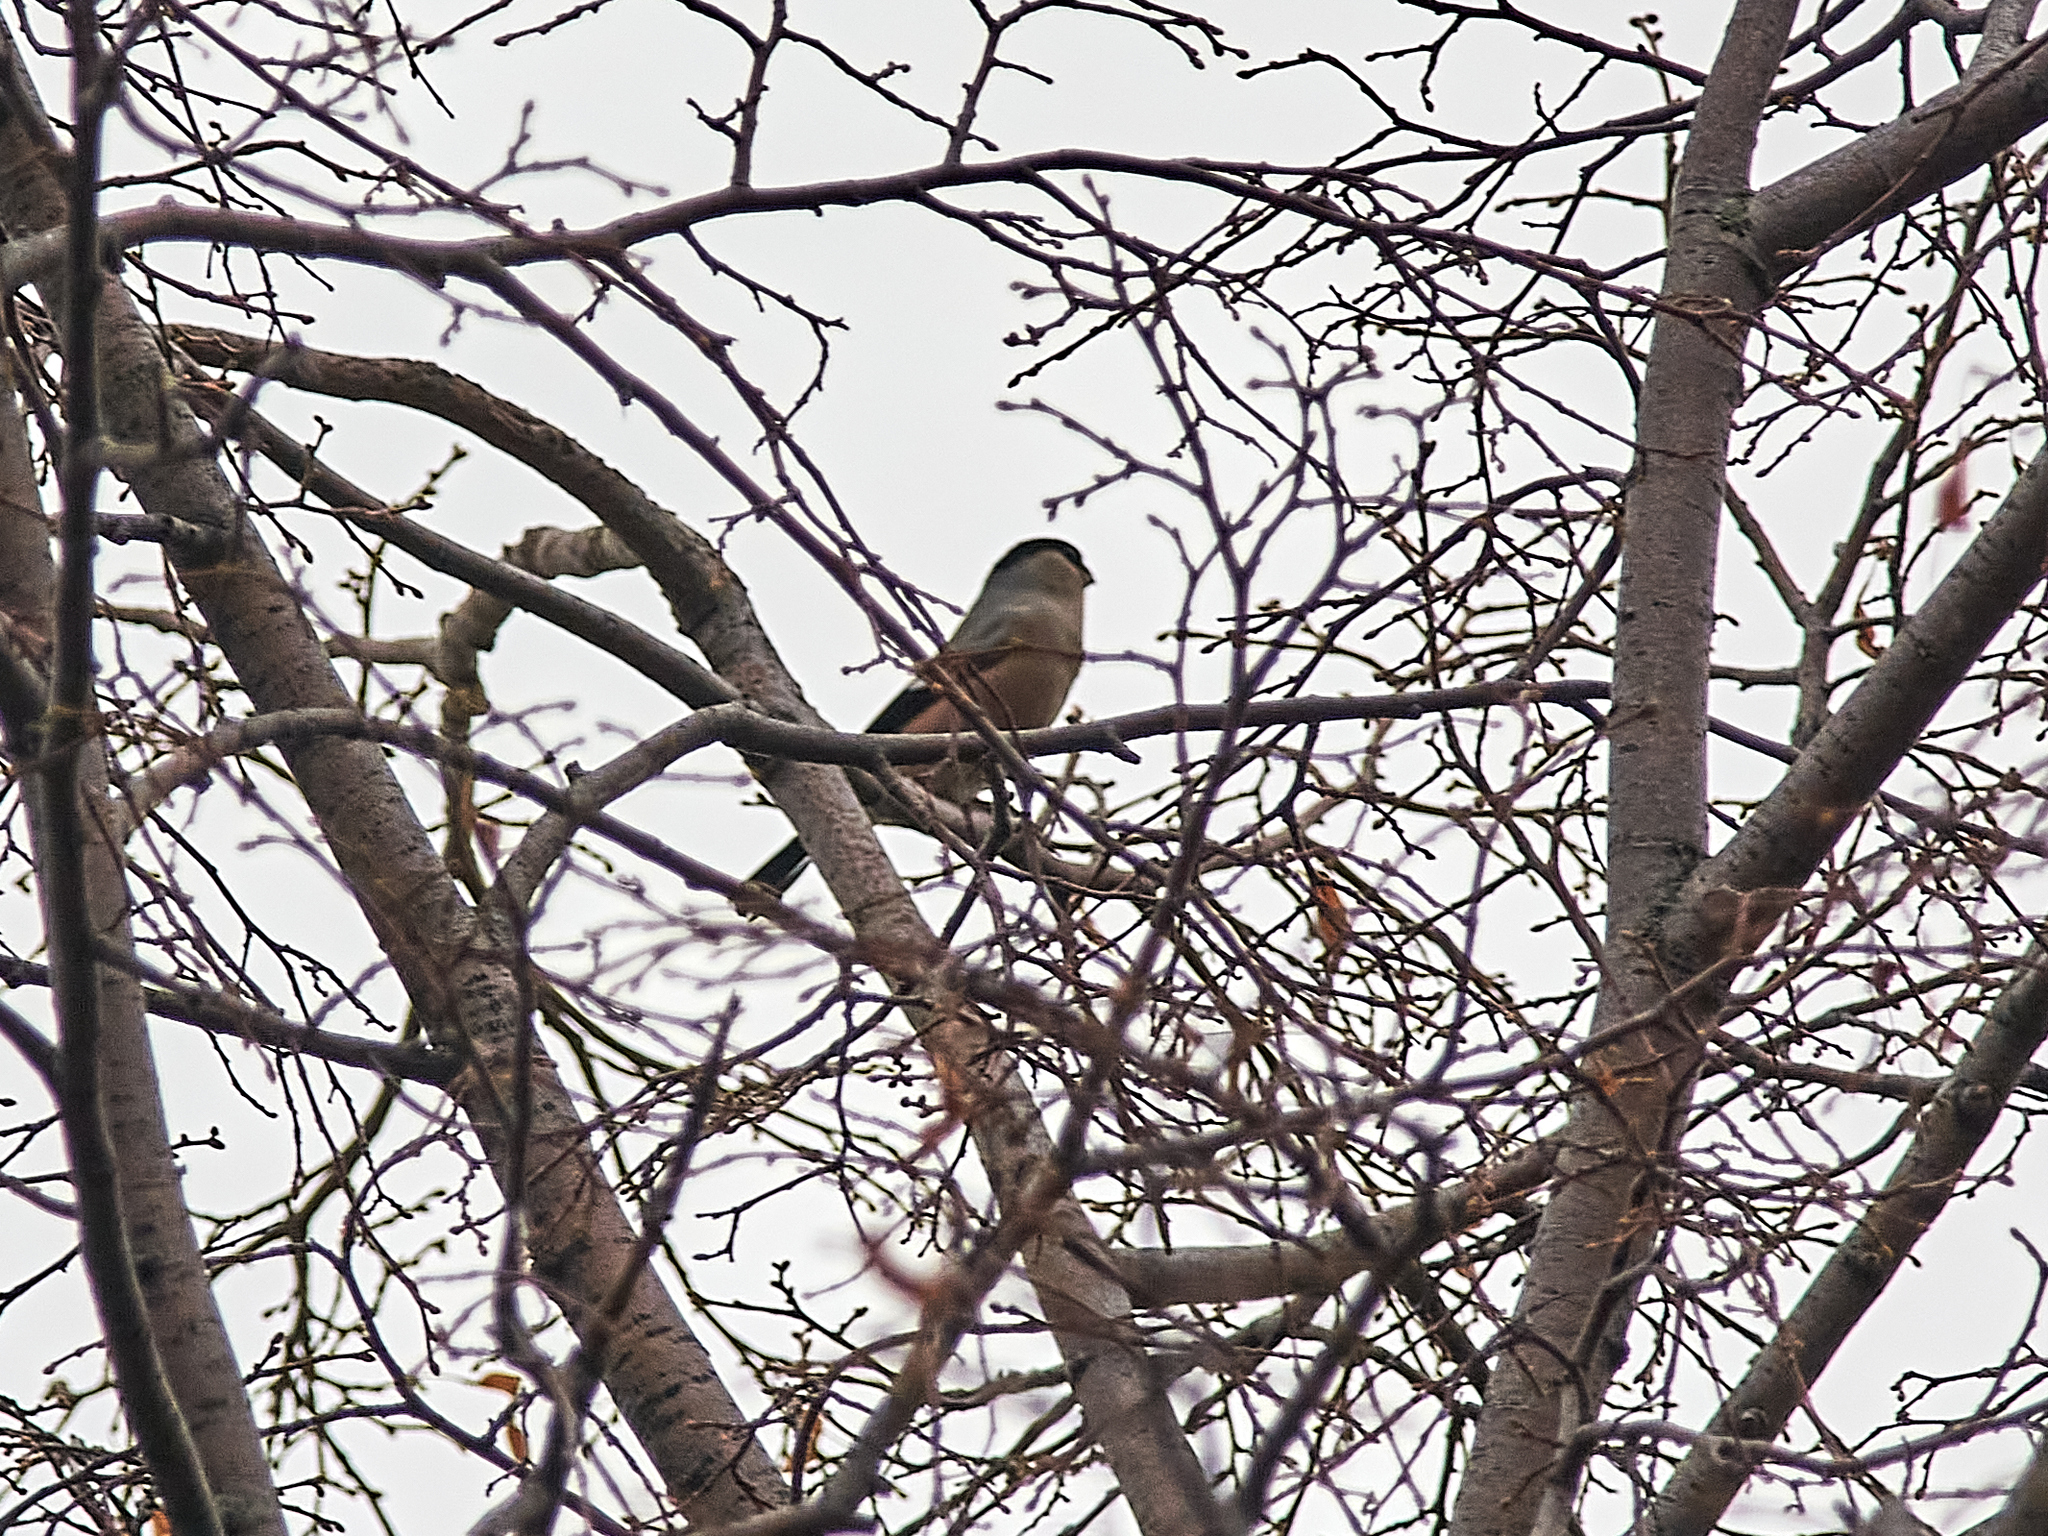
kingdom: Animalia
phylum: Chordata
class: Aves
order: Passeriformes
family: Fringillidae
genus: Pyrrhula
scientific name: Pyrrhula pyrrhula
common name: Eurasian bullfinch
